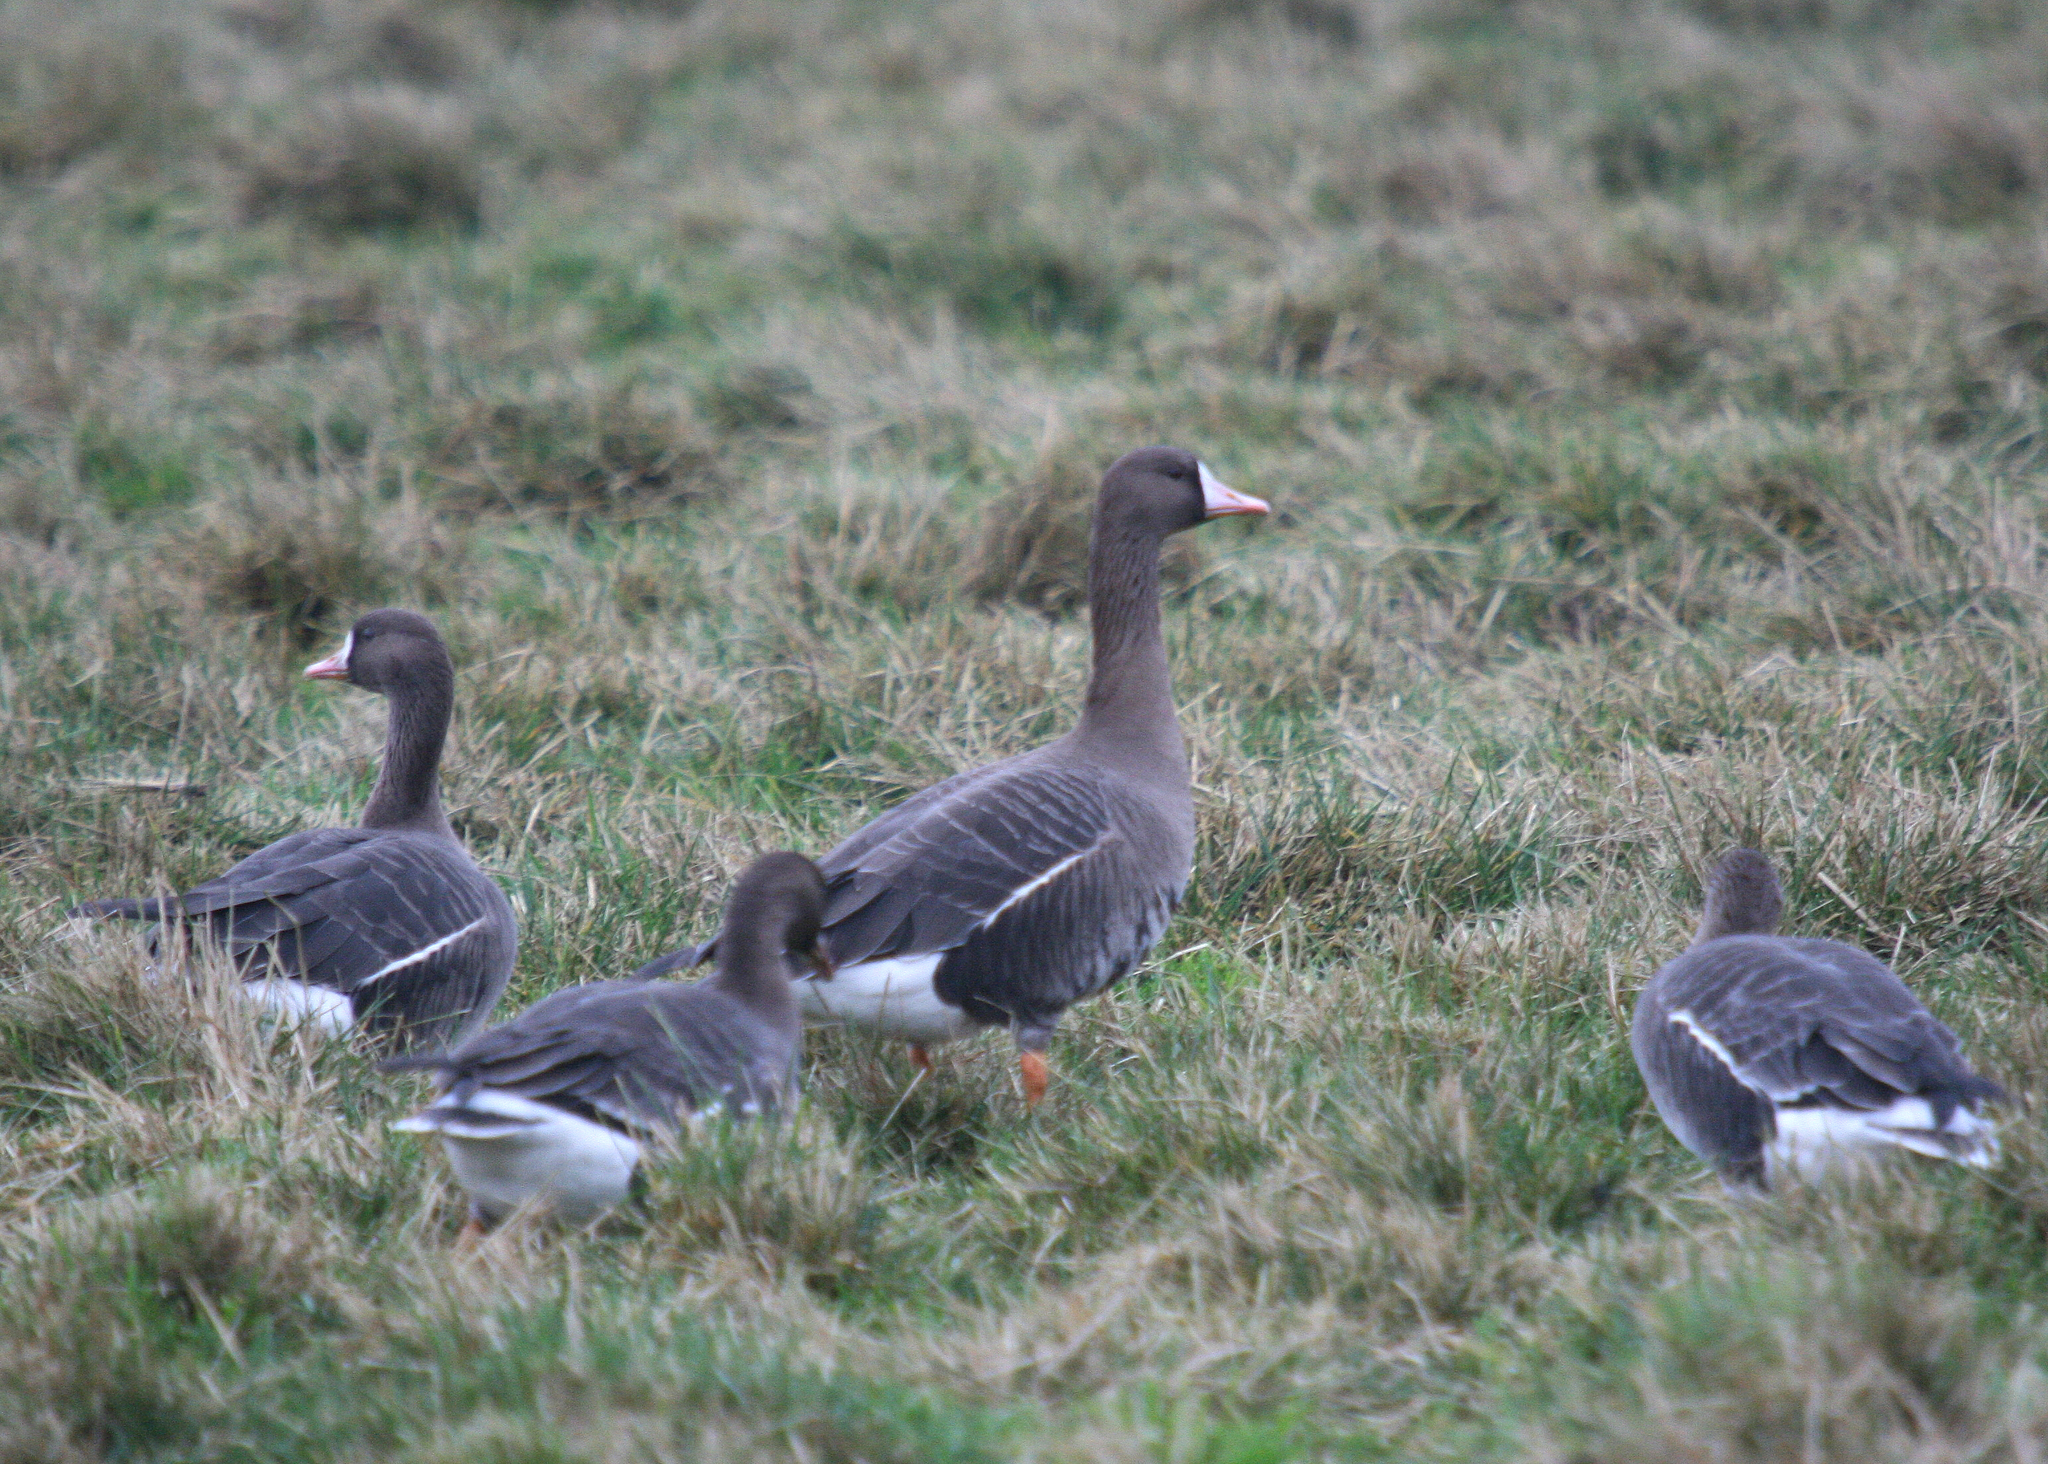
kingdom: Animalia
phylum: Chordata
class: Aves
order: Anseriformes
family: Anatidae
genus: Anser
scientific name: Anser albifrons
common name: Greater white-fronted goose
